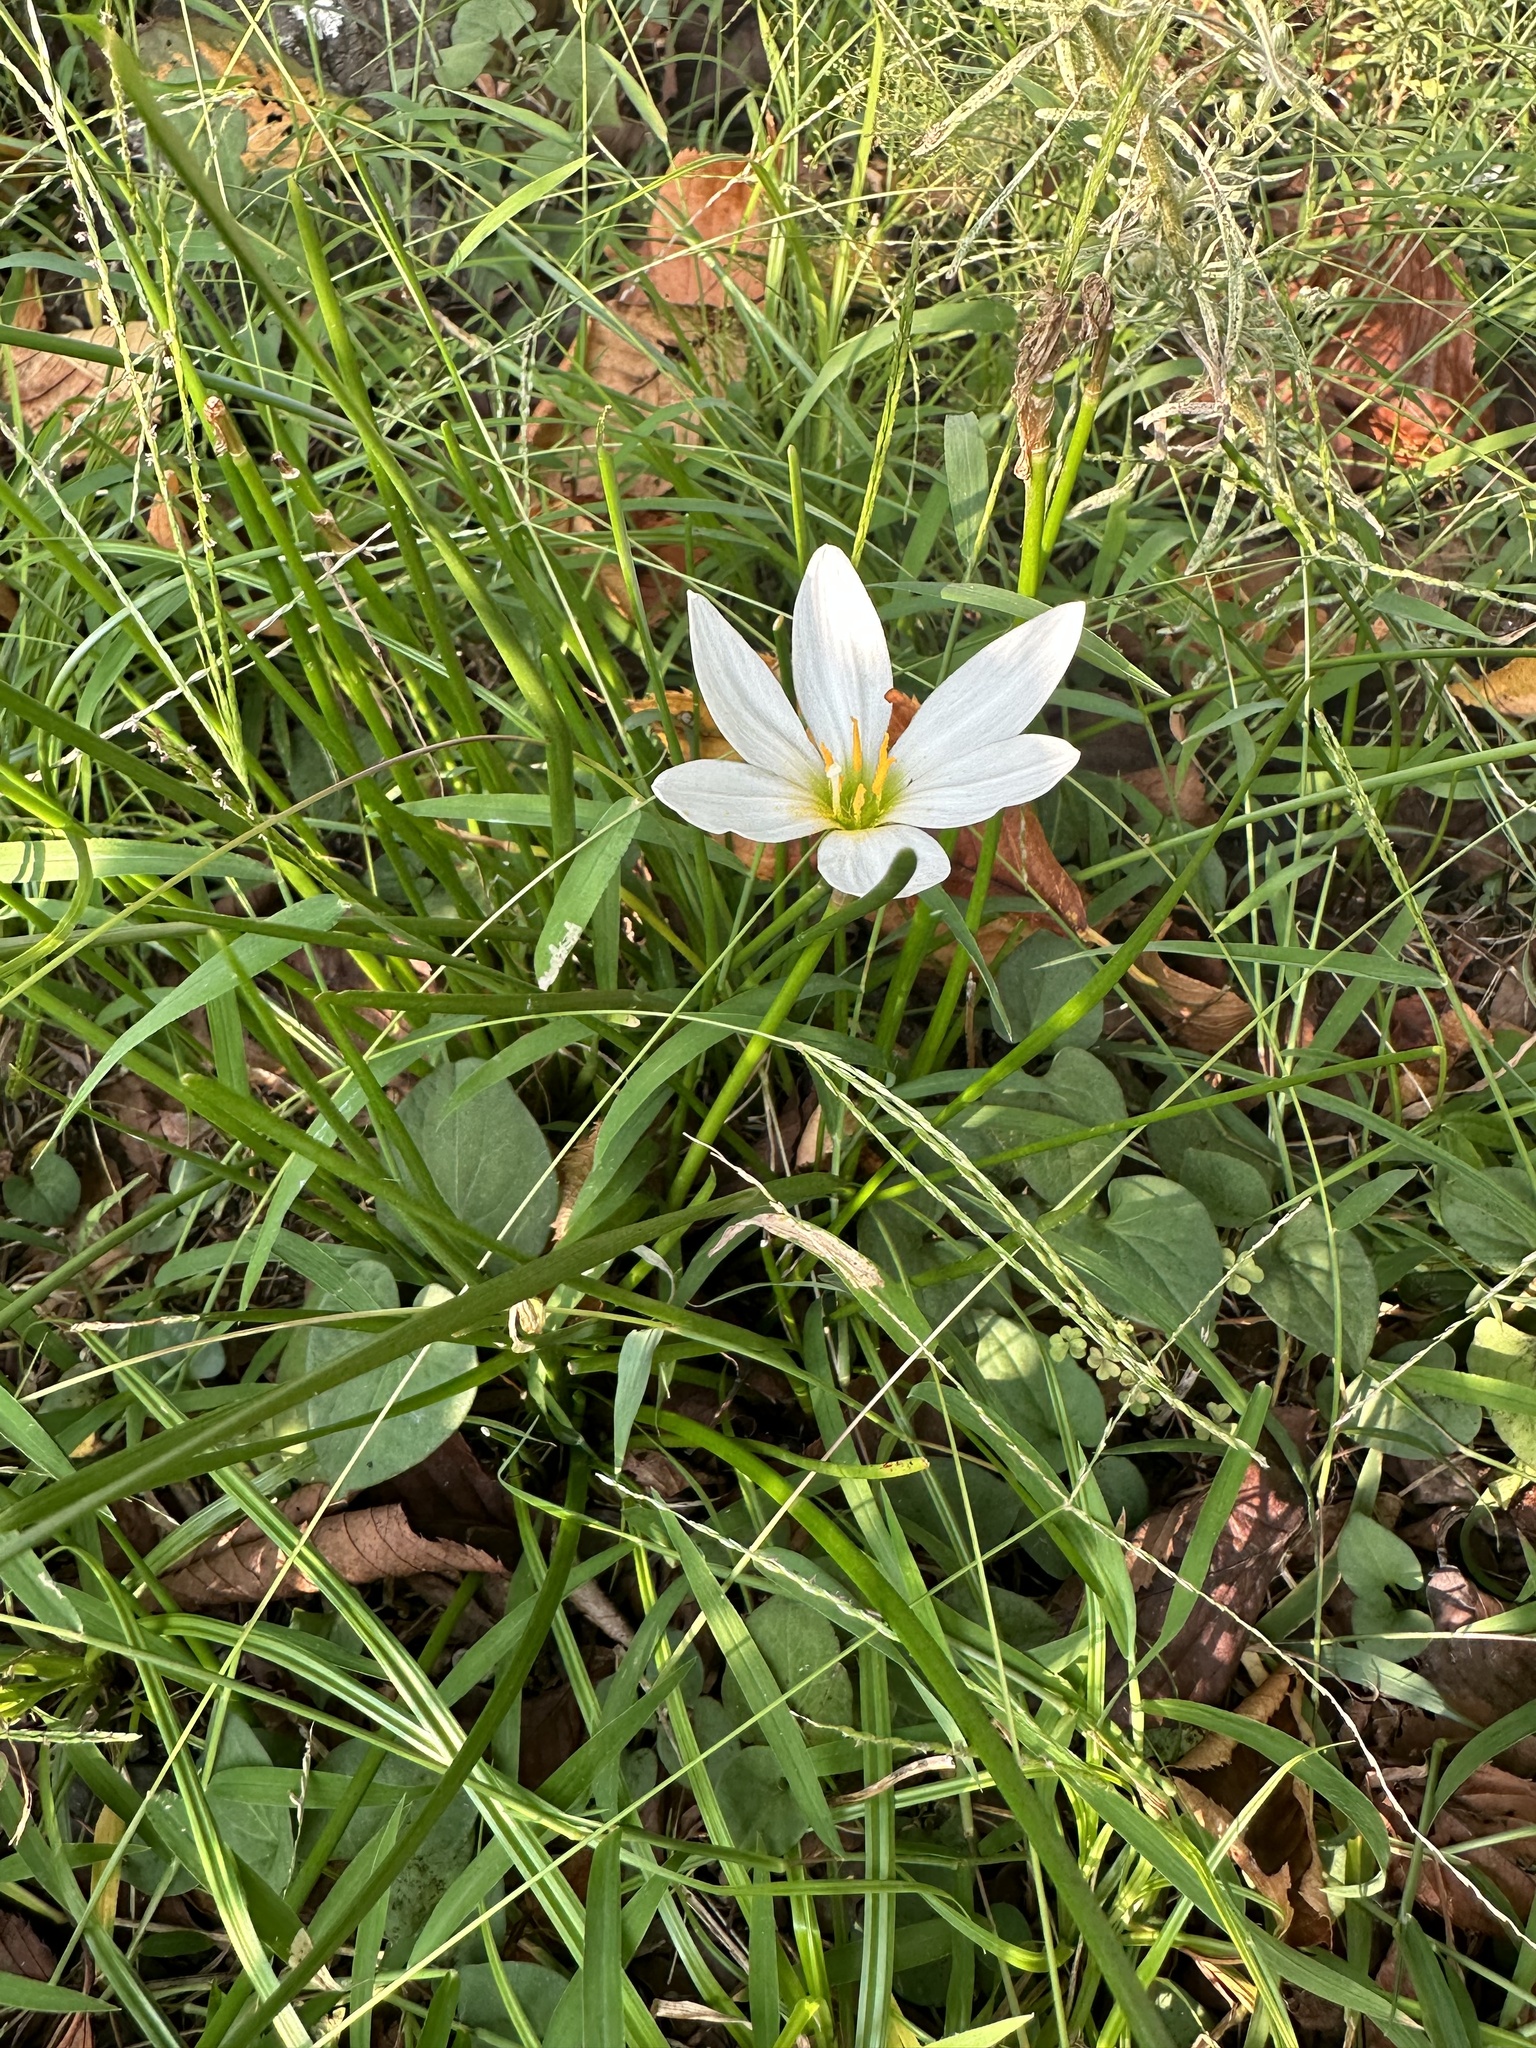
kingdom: Plantae
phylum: Tracheophyta
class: Liliopsida
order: Asparagales
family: Amaryllidaceae
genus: Zephyranthes
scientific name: Zephyranthes candida
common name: Autumn zephyrlily
